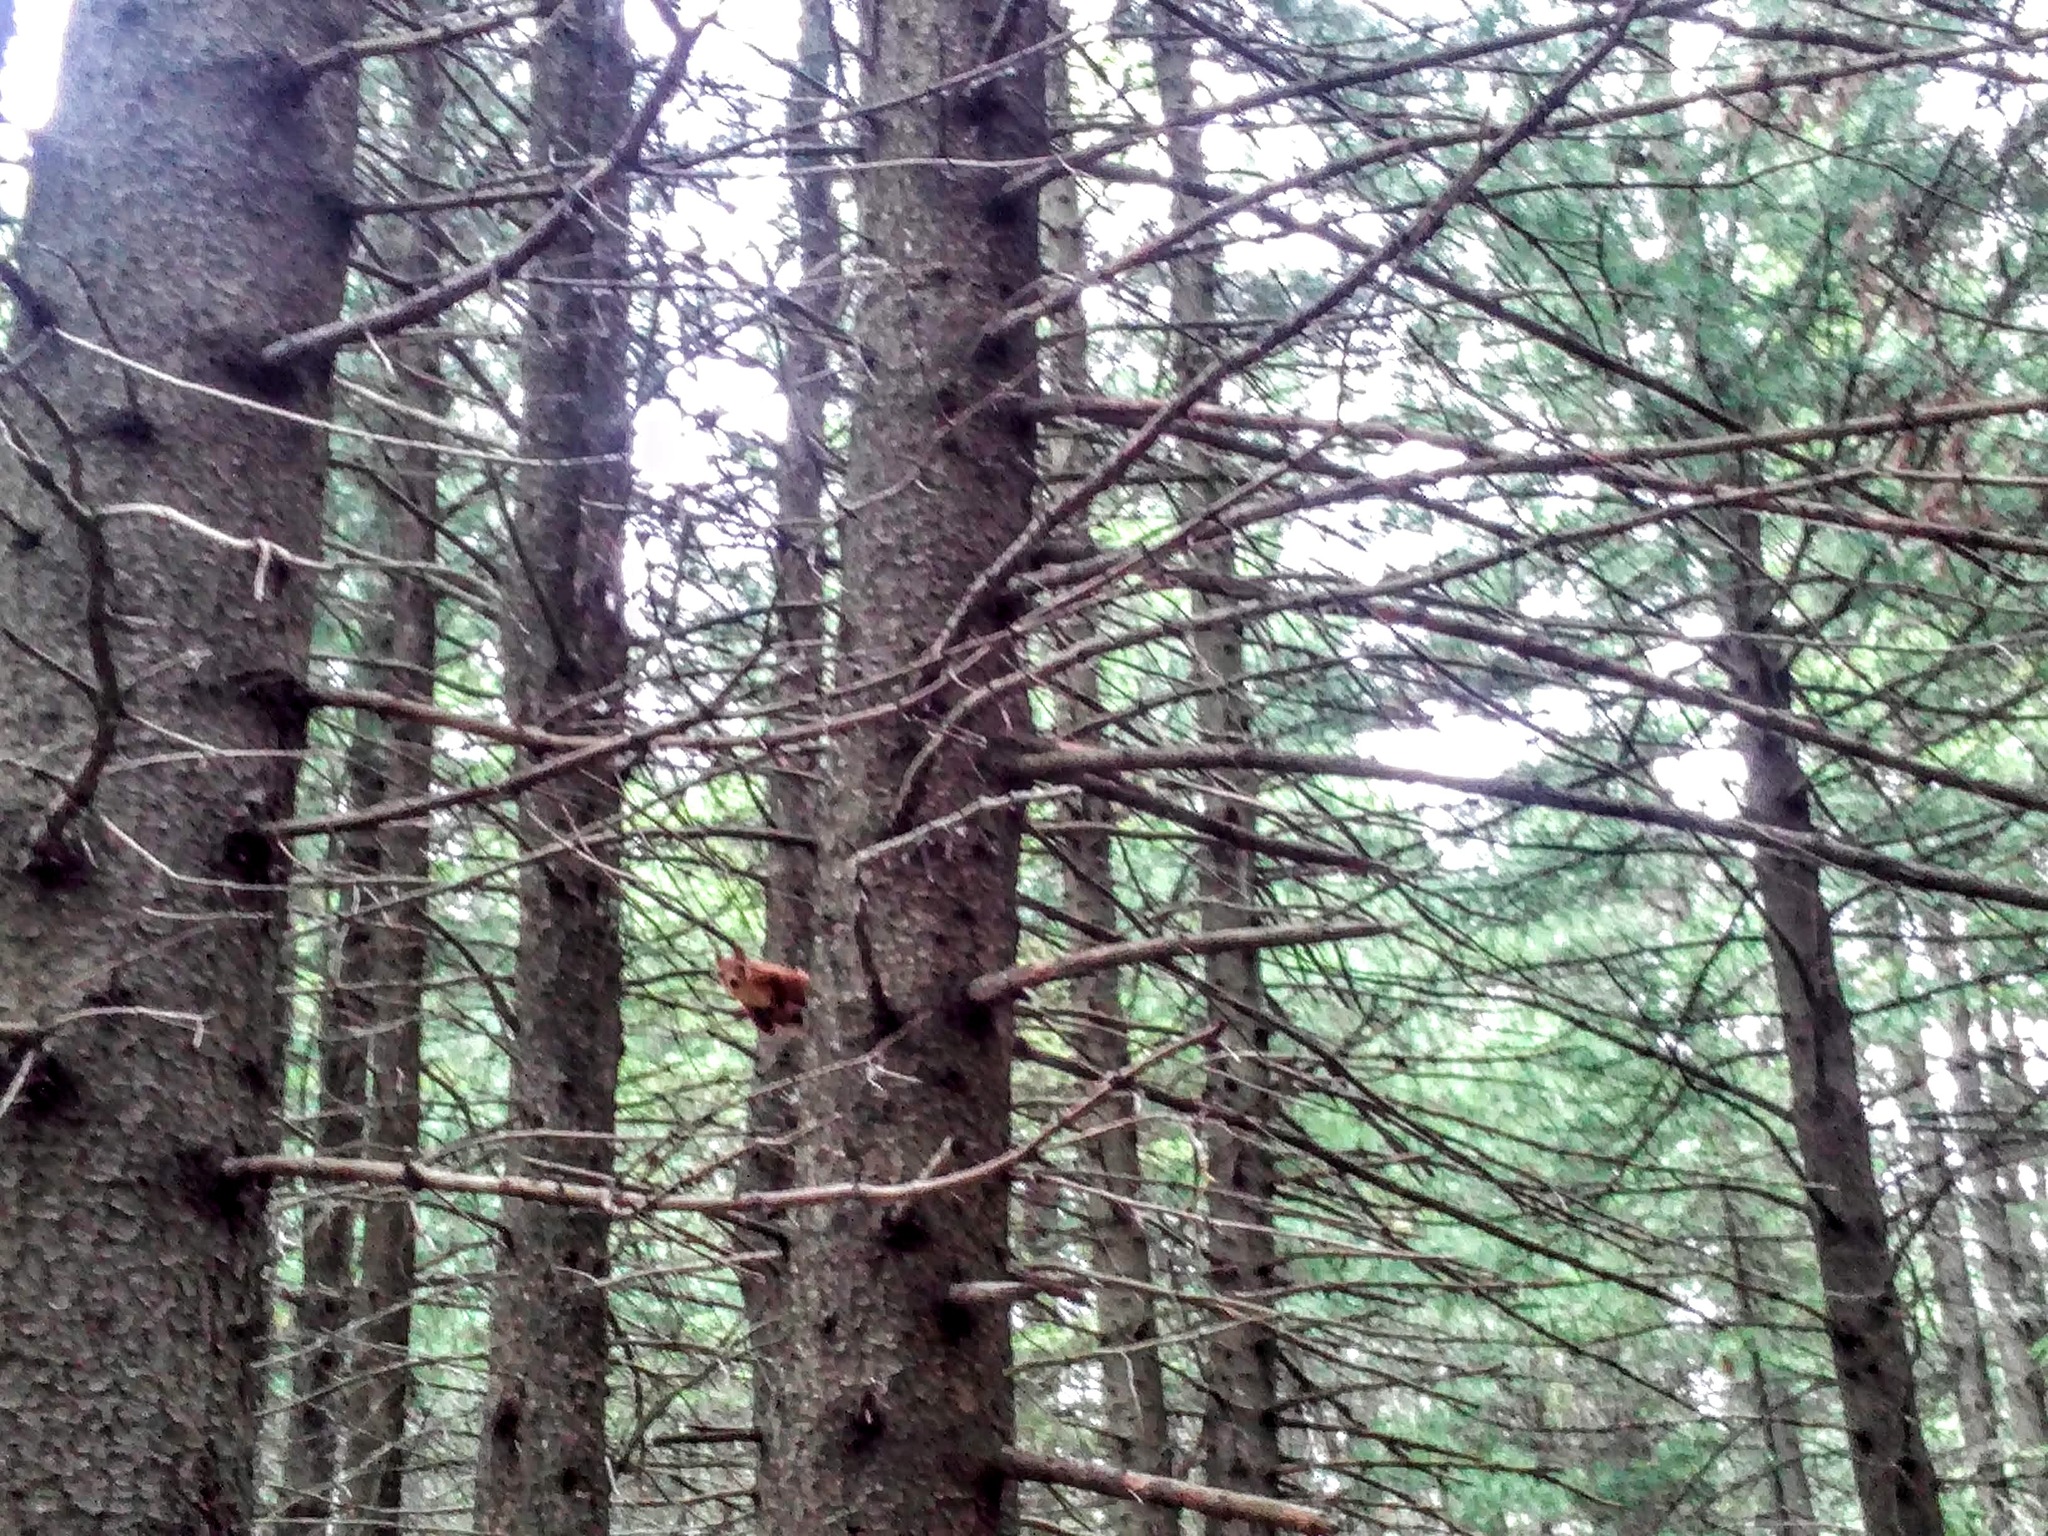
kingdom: Animalia
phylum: Chordata
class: Mammalia
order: Rodentia
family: Sciuridae
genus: Sciurus
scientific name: Sciurus vulgaris
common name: Eurasian red squirrel
